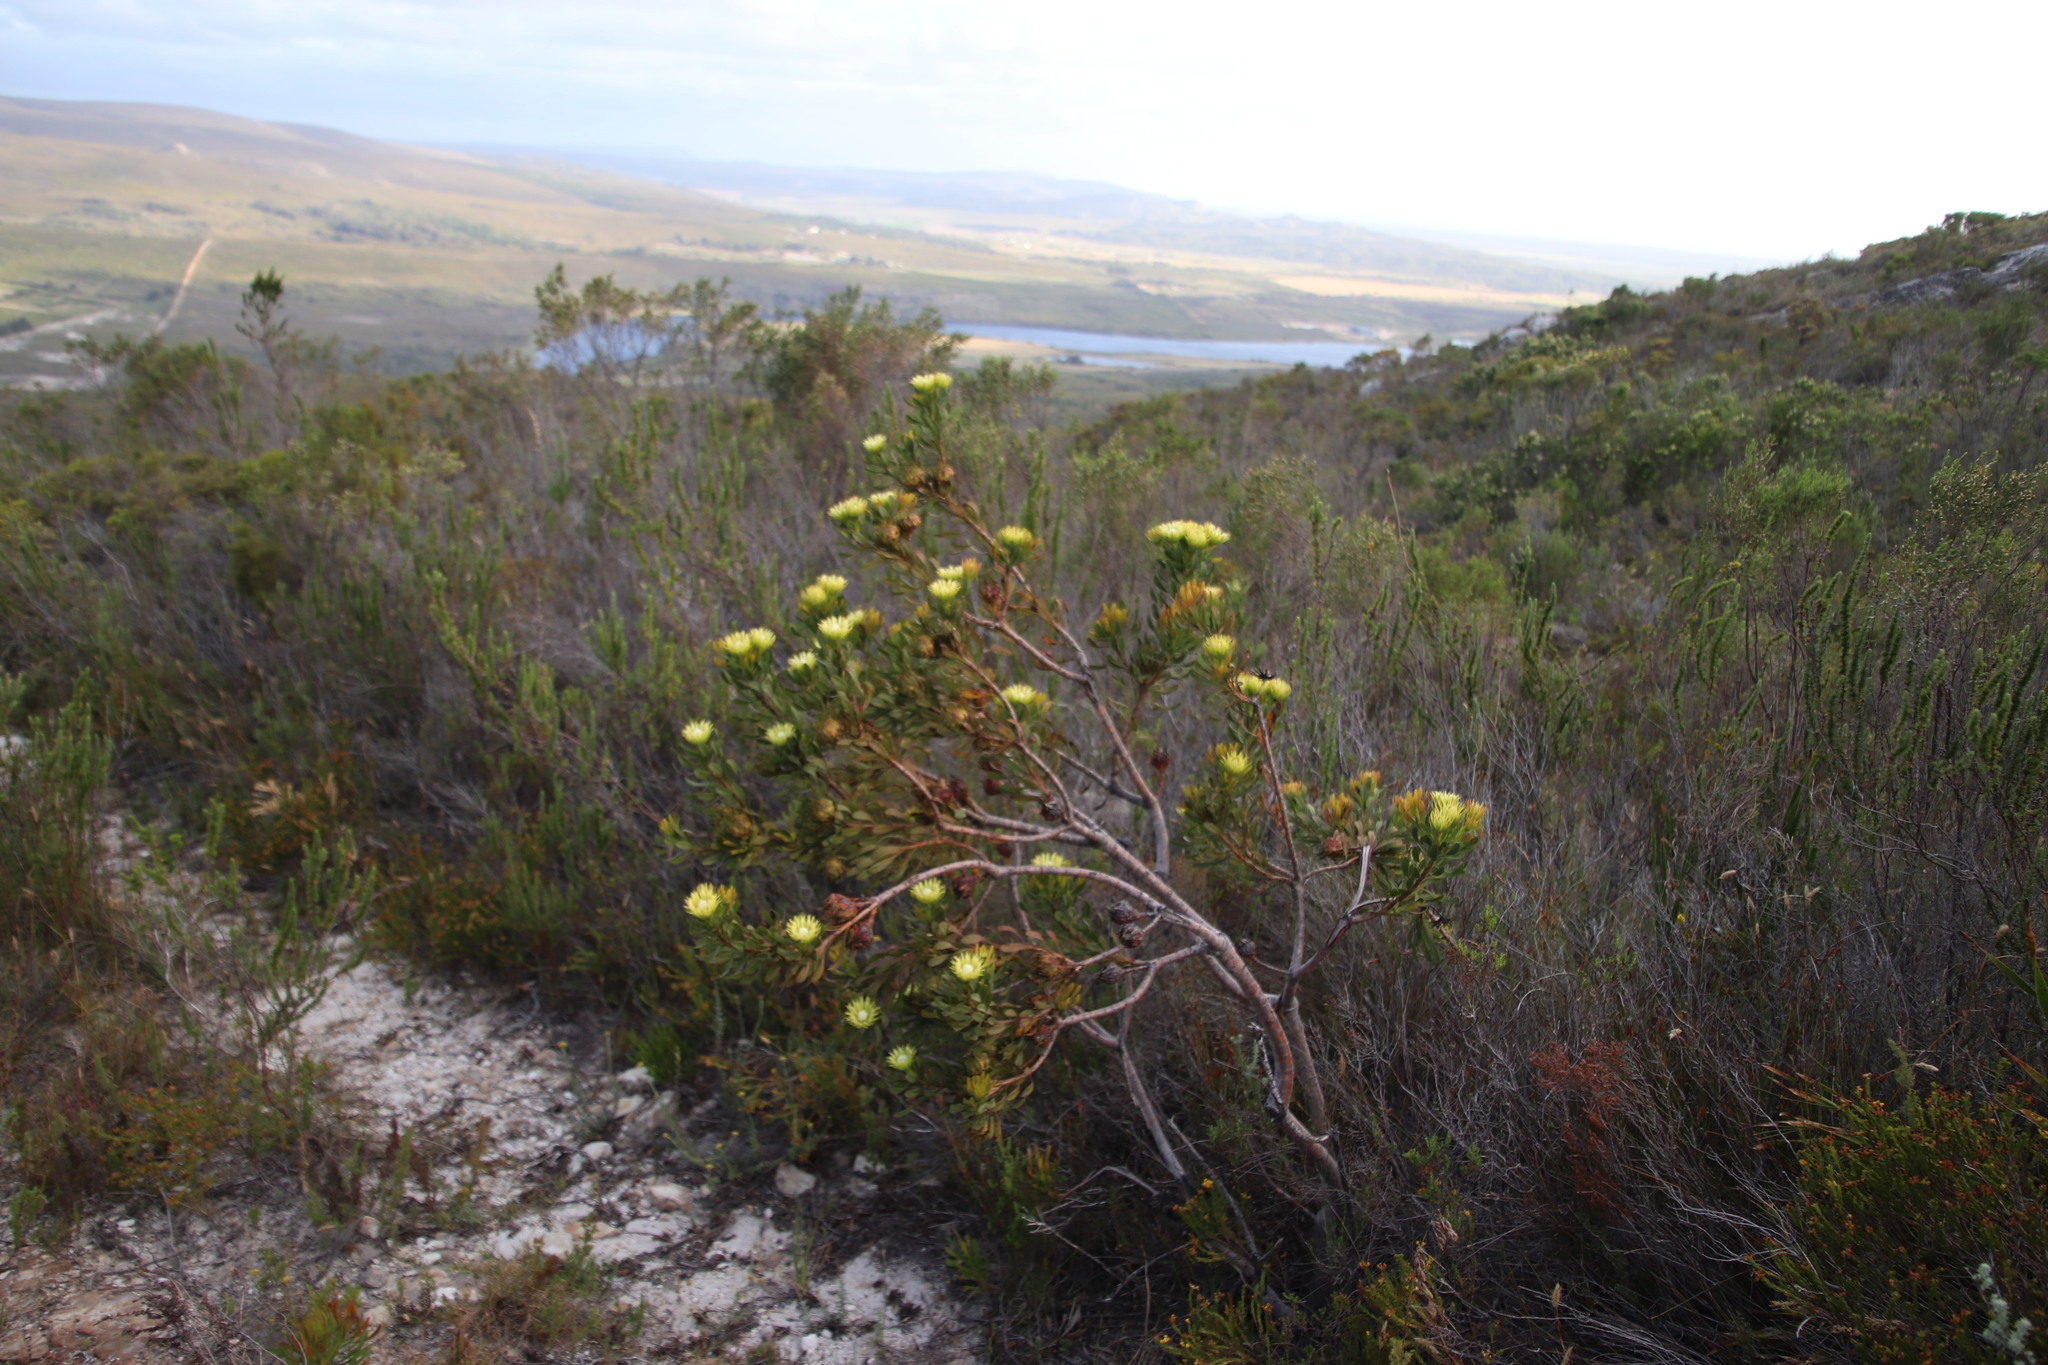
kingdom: Plantae
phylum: Tracheophyta
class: Magnoliopsida
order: Proteales
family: Proteaceae
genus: Aulax
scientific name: Aulax umbellata
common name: Broad-leaf featherbush
